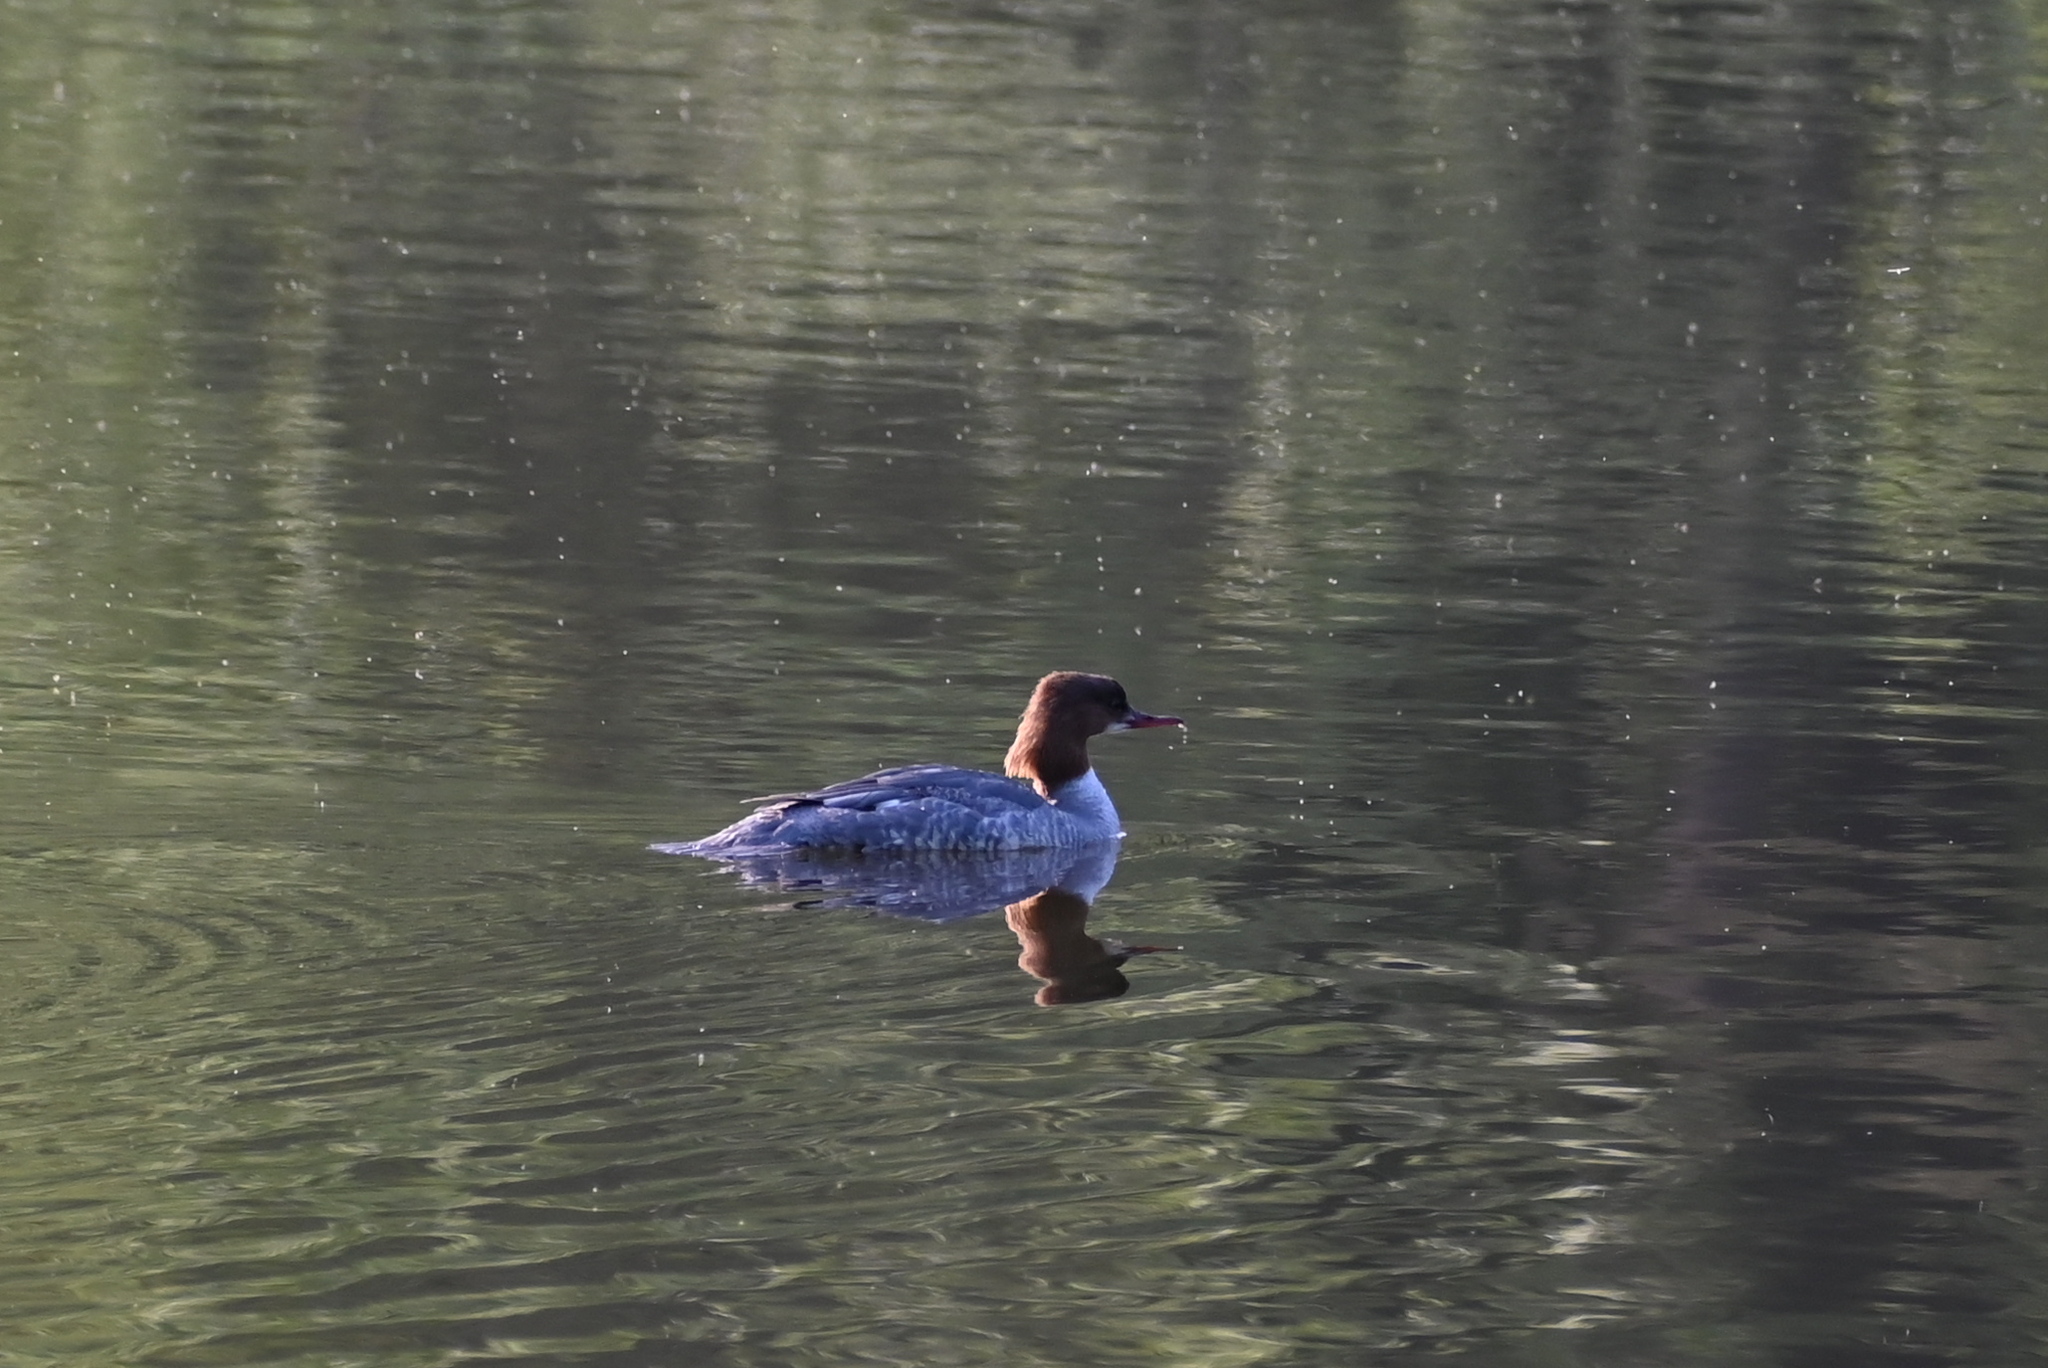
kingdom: Animalia
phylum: Chordata
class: Aves
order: Anseriformes
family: Anatidae
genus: Mergus
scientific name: Mergus merganser
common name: Common merganser
